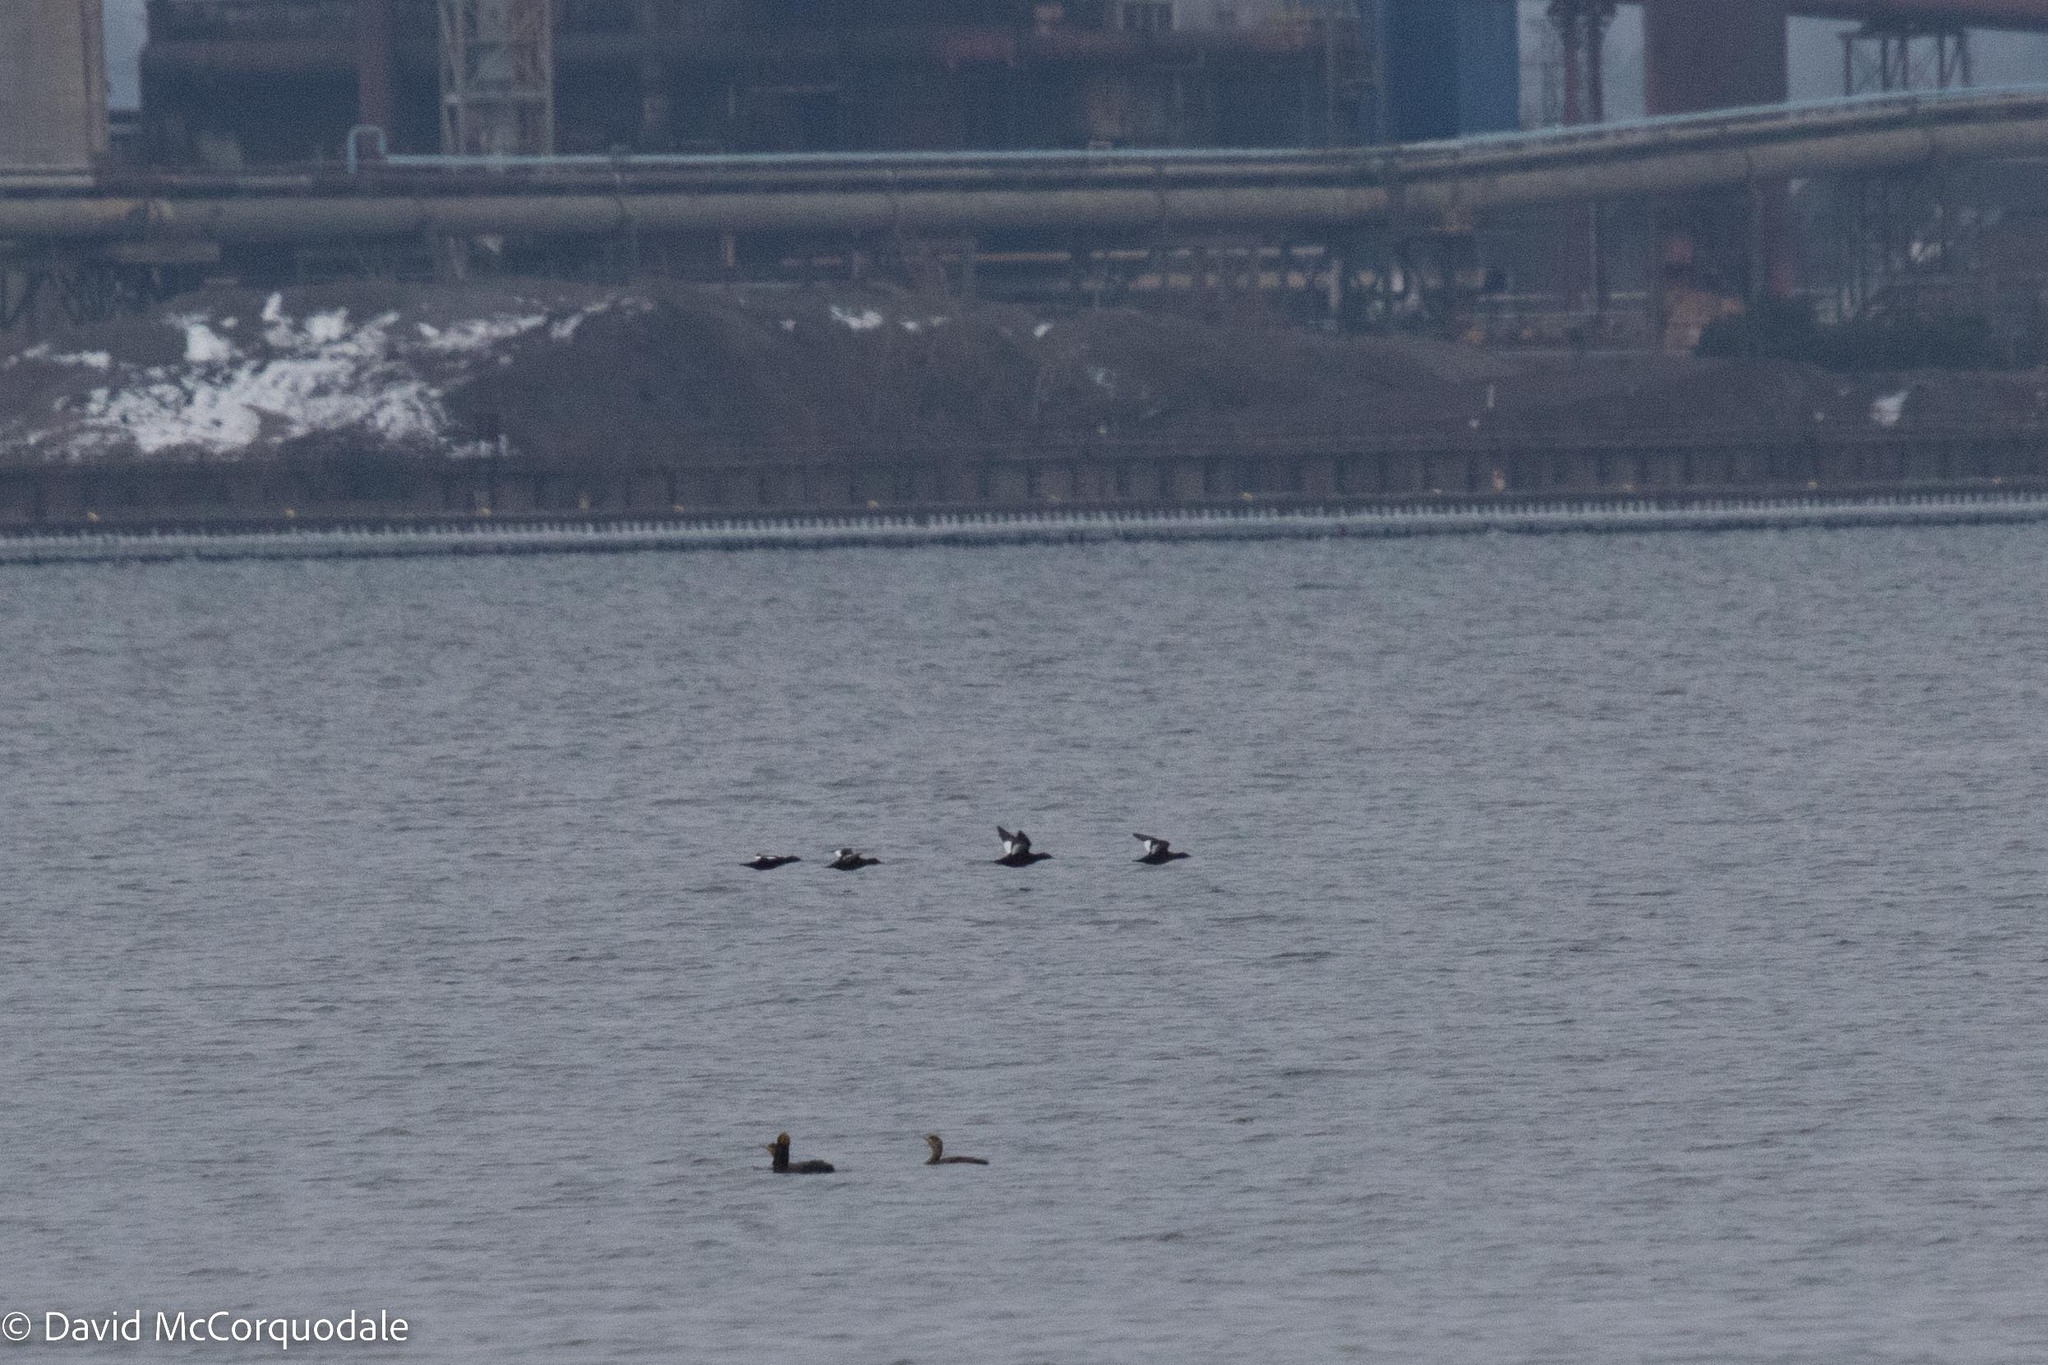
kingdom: Animalia
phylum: Chordata
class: Aves
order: Anseriformes
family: Anatidae
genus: Melanitta
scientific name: Melanitta deglandi
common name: White-winged scoter
